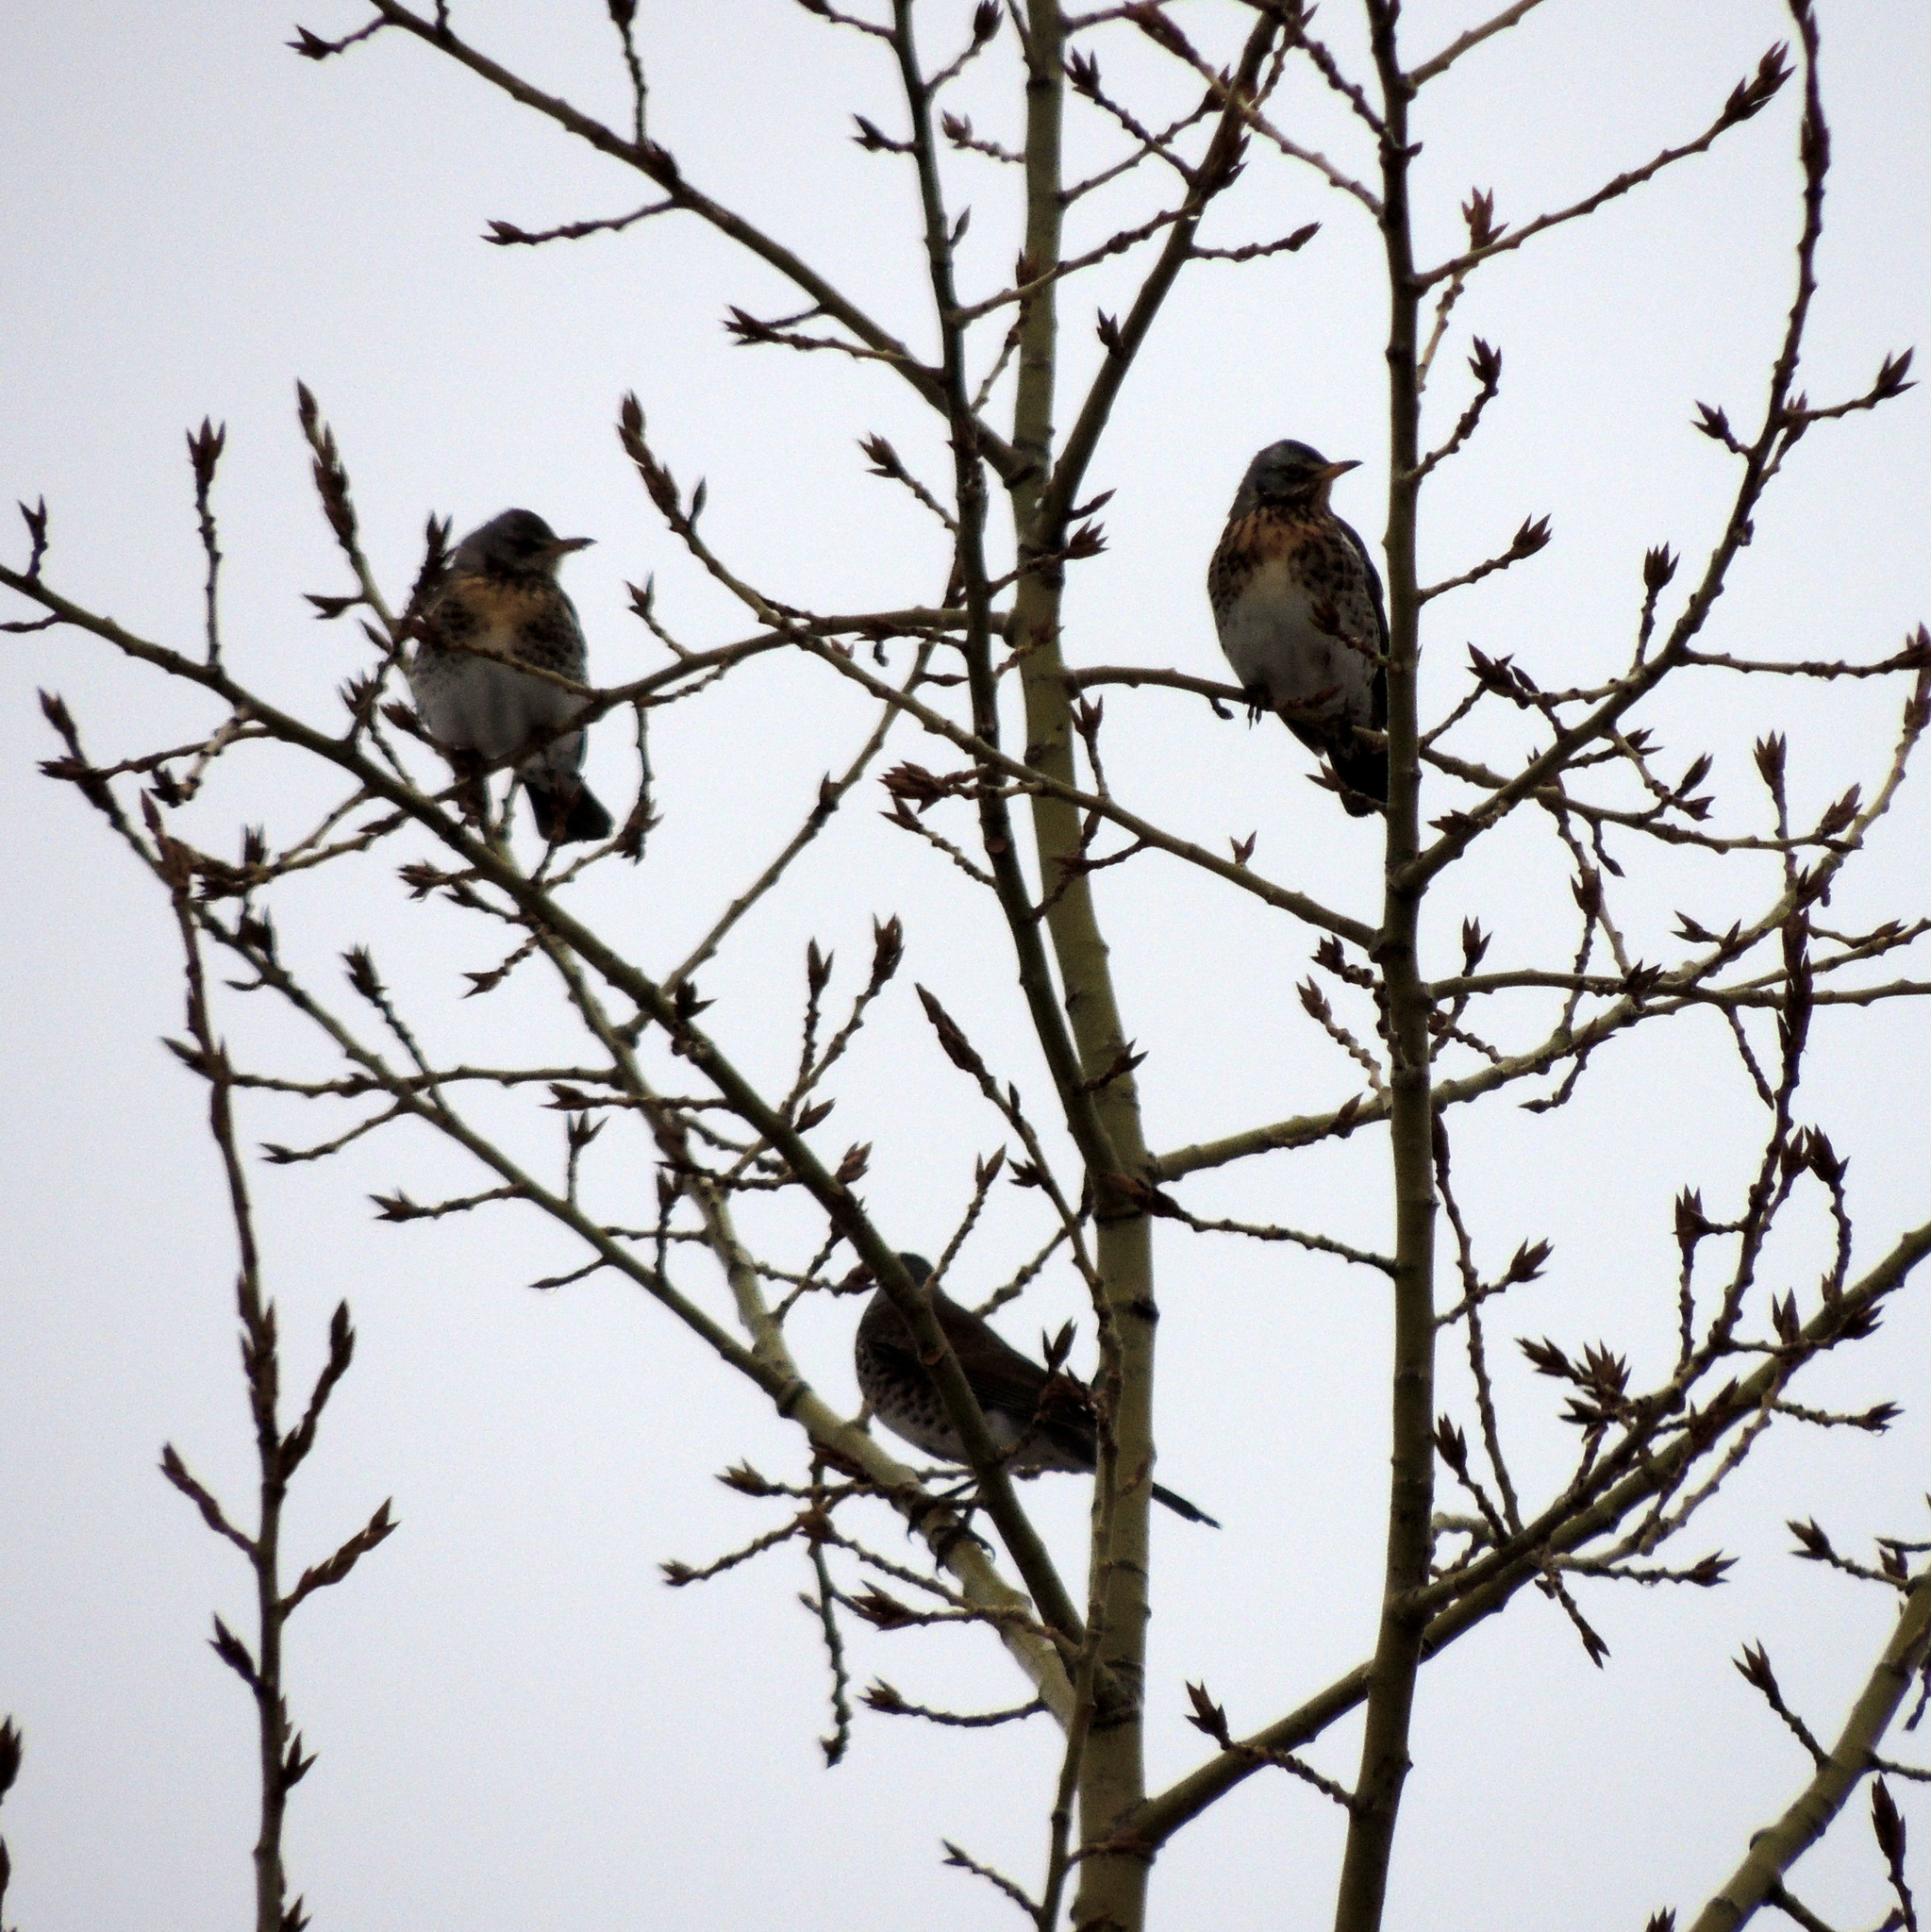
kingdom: Animalia
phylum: Chordata
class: Aves
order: Passeriformes
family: Turdidae
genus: Turdus
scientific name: Turdus pilaris
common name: Fieldfare
